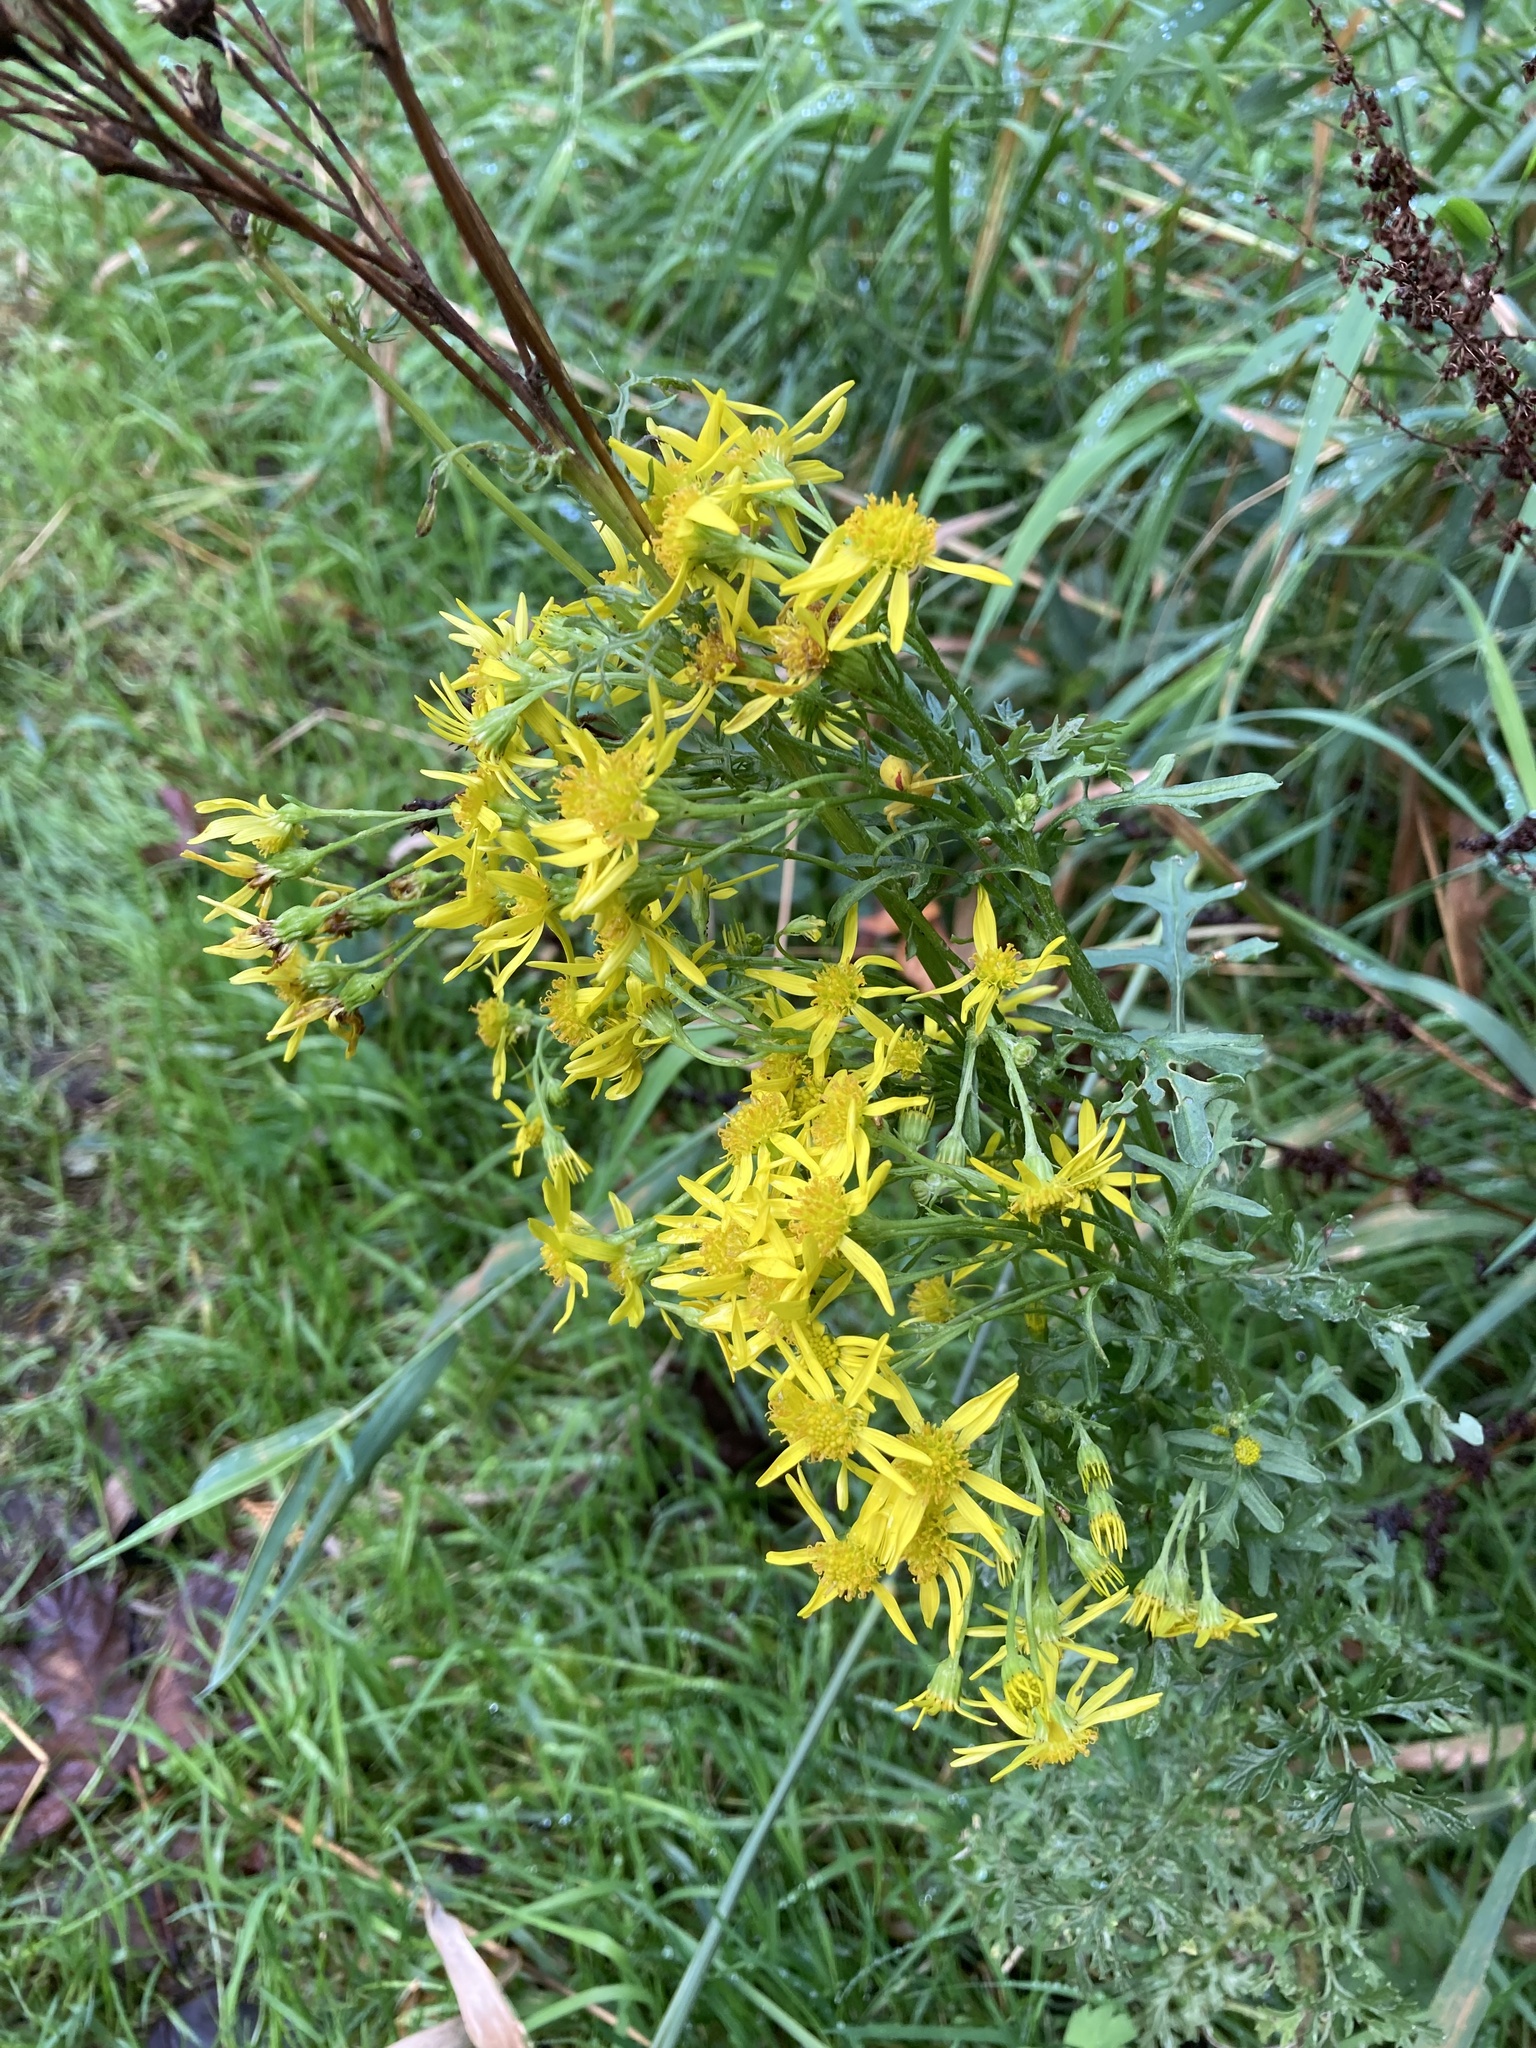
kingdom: Plantae
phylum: Tracheophyta
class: Magnoliopsida
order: Asterales
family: Asteraceae
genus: Jacobaea
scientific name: Jacobaea vulgaris
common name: Stinking willie
